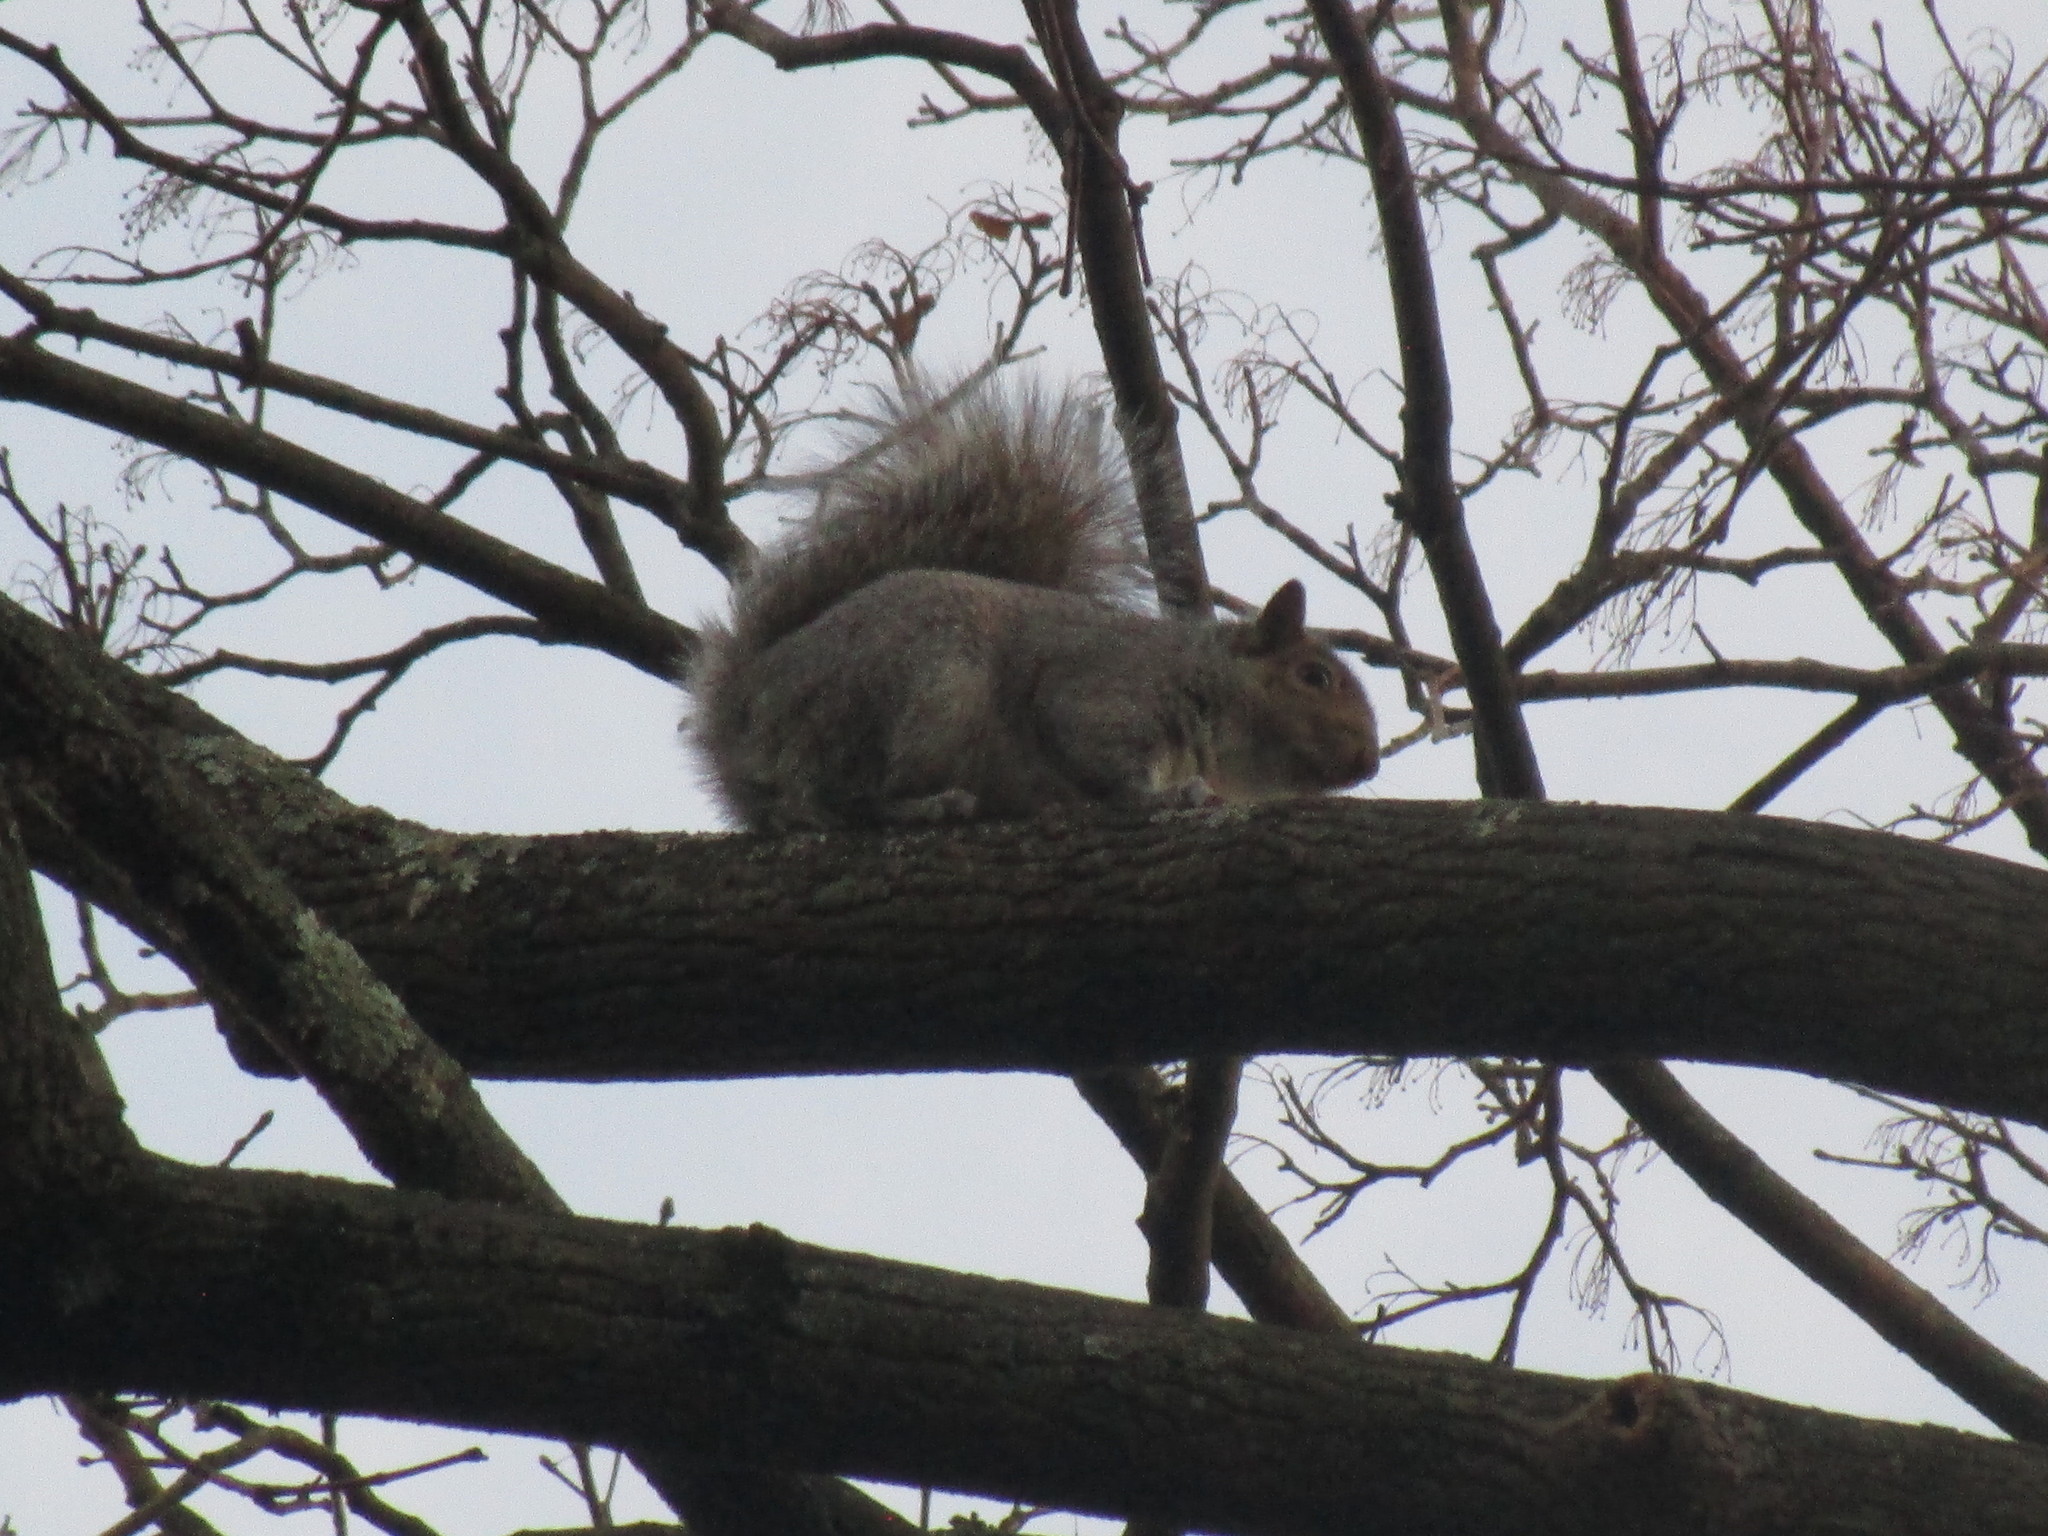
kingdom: Animalia
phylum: Chordata
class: Mammalia
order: Rodentia
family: Sciuridae
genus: Sciurus
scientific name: Sciurus carolinensis
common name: Eastern gray squirrel
